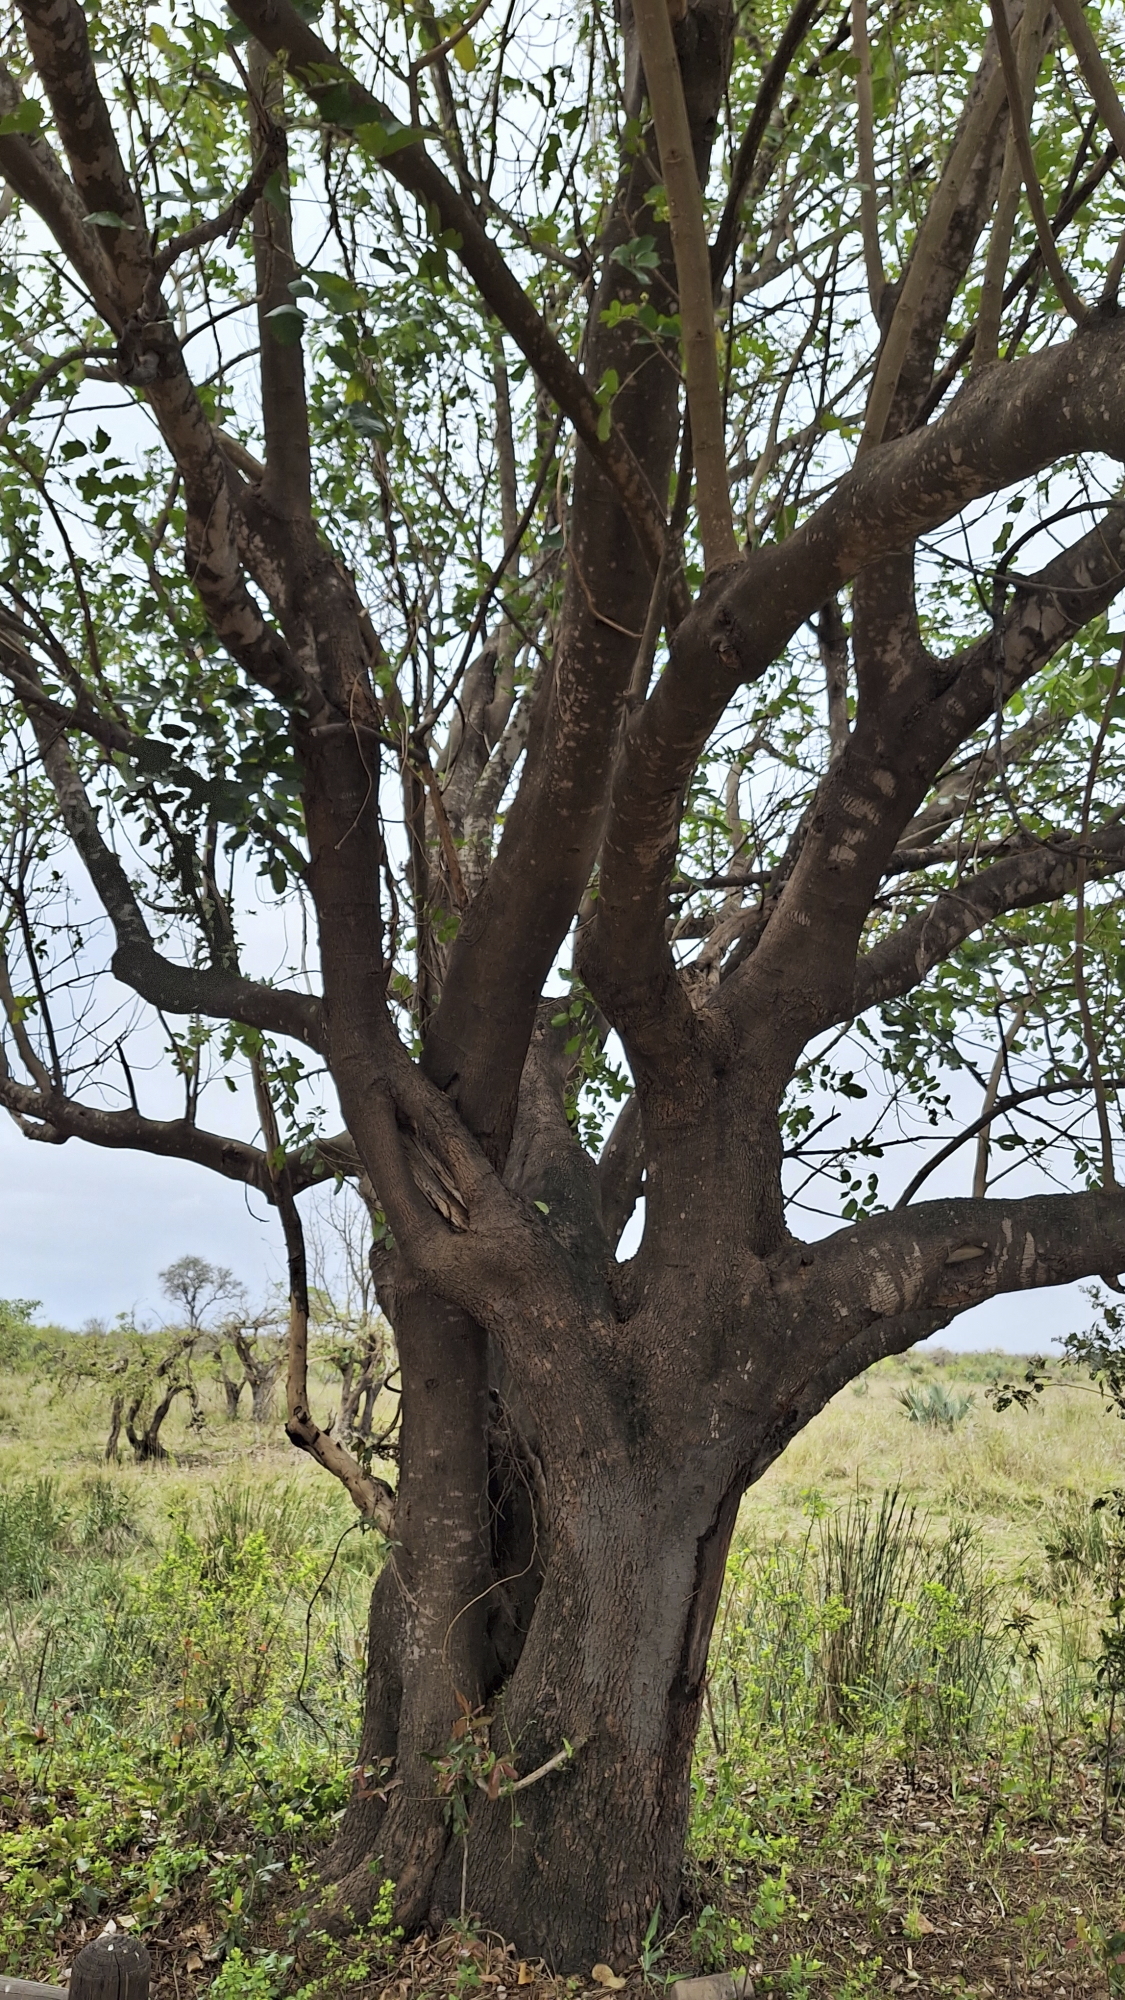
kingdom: Plantae
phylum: Tracheophyta
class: Magnoliopsida
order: Sapindales
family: Meliaceae
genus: Trichilia
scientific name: Trichilia emetica
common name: Christmas-bells
